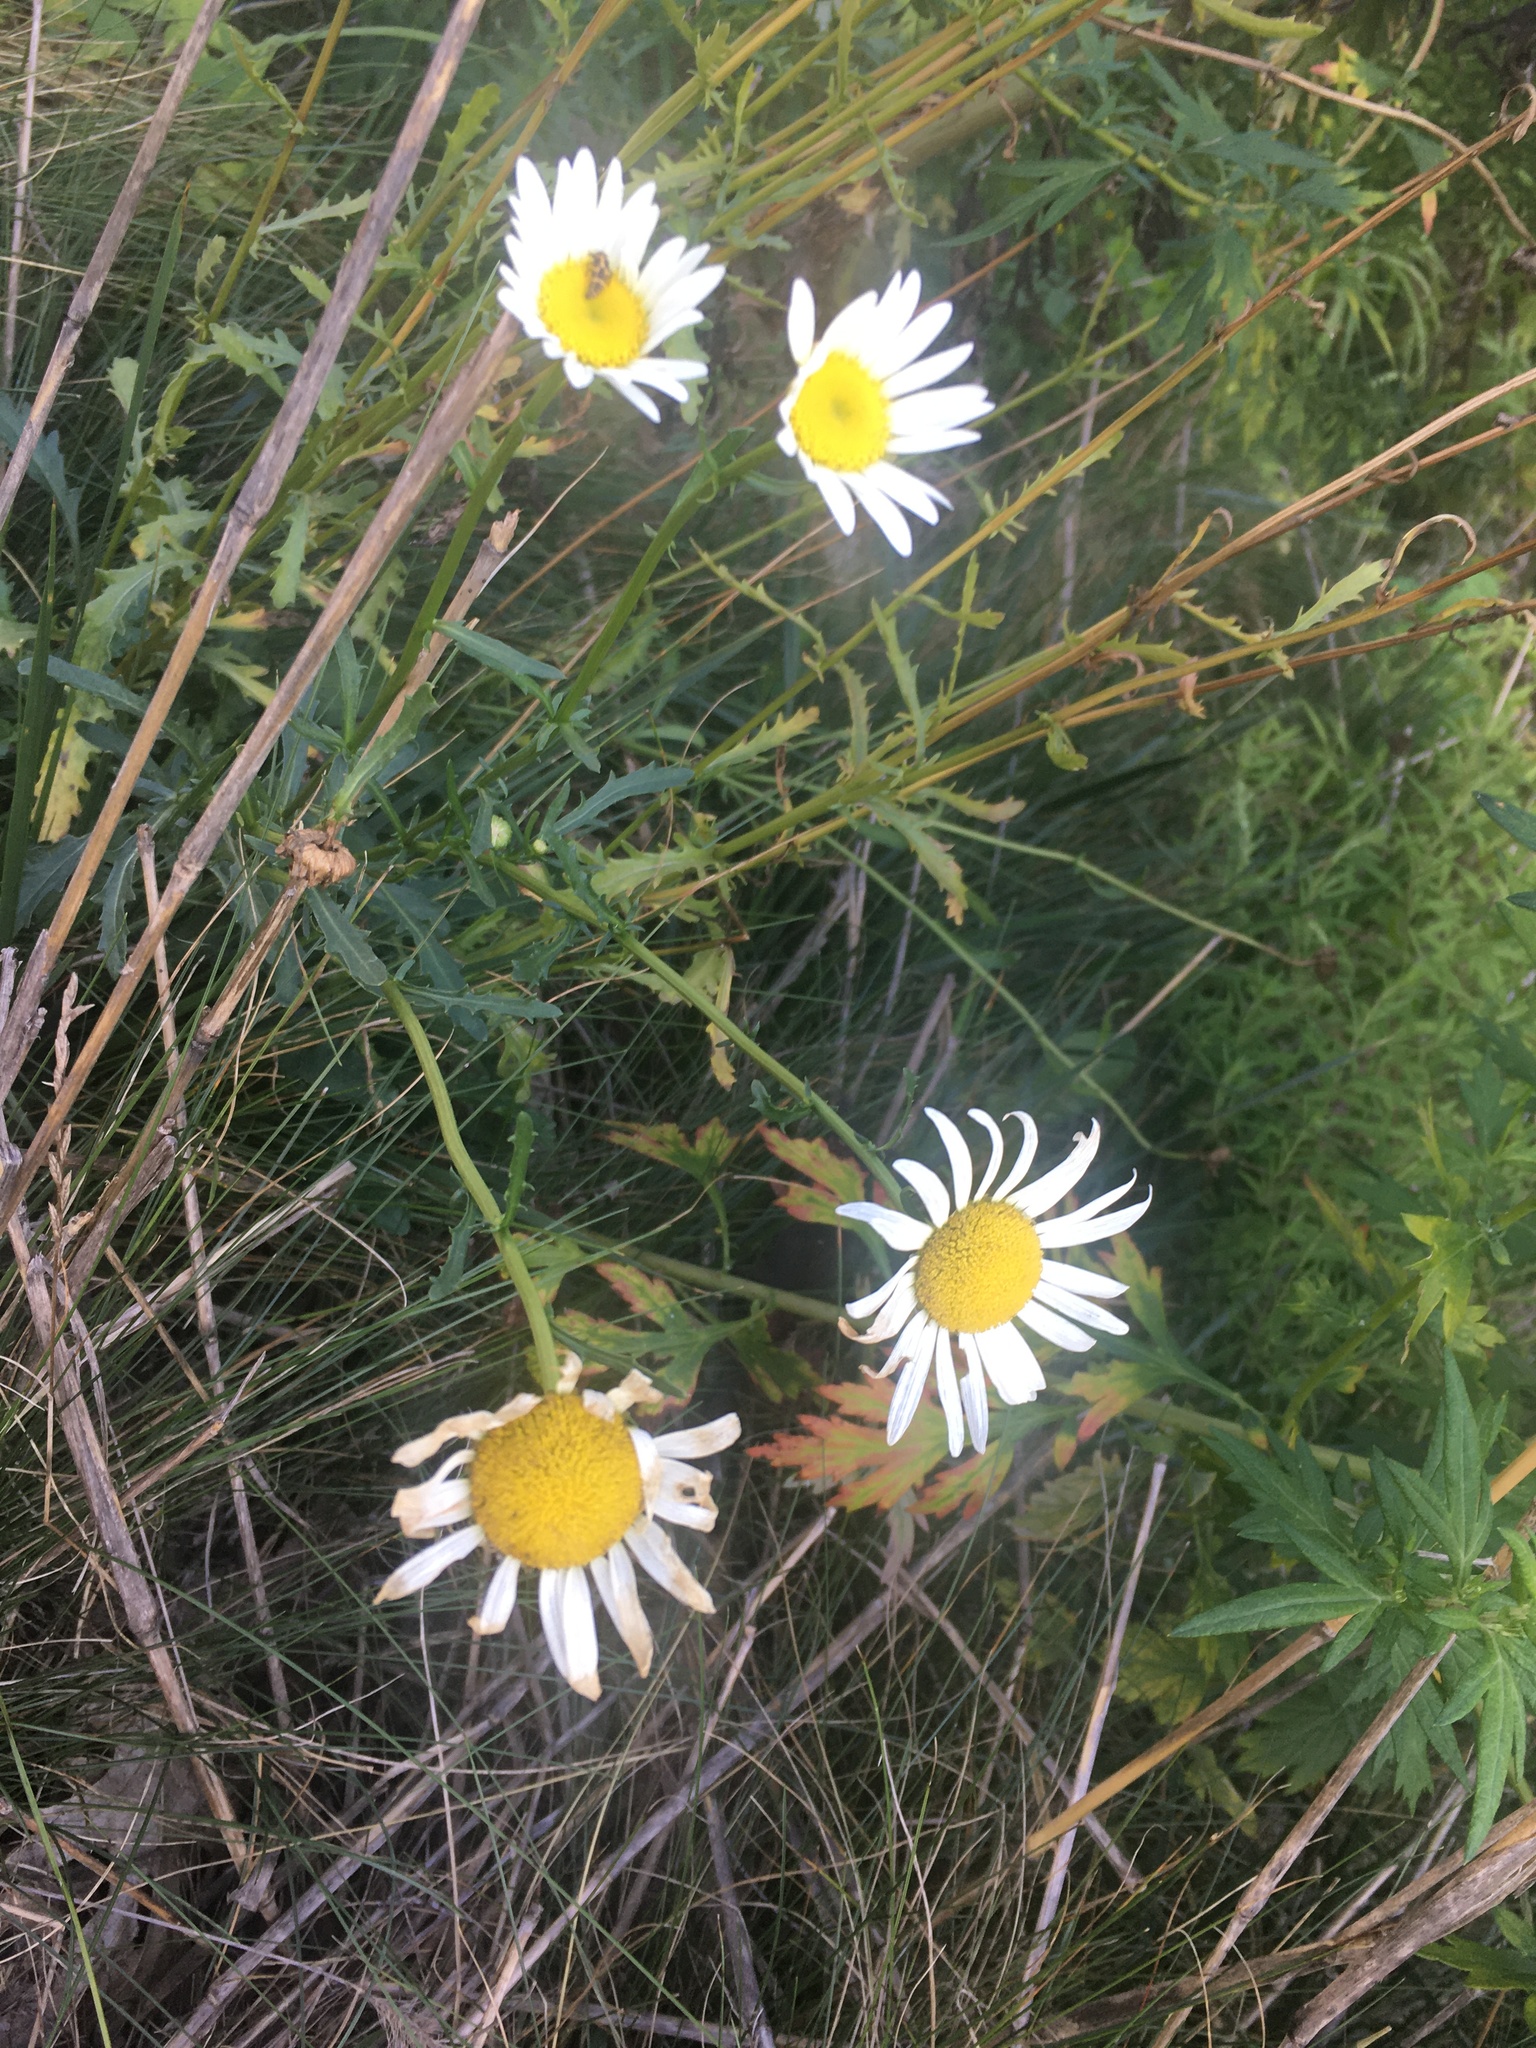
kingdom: Plantae
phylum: Tracheophyta
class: Magnoliopsida
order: Asterales
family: Asteraceae
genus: Leucanthemum
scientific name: Leucanthemum vulgare
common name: Oxeye daisy
